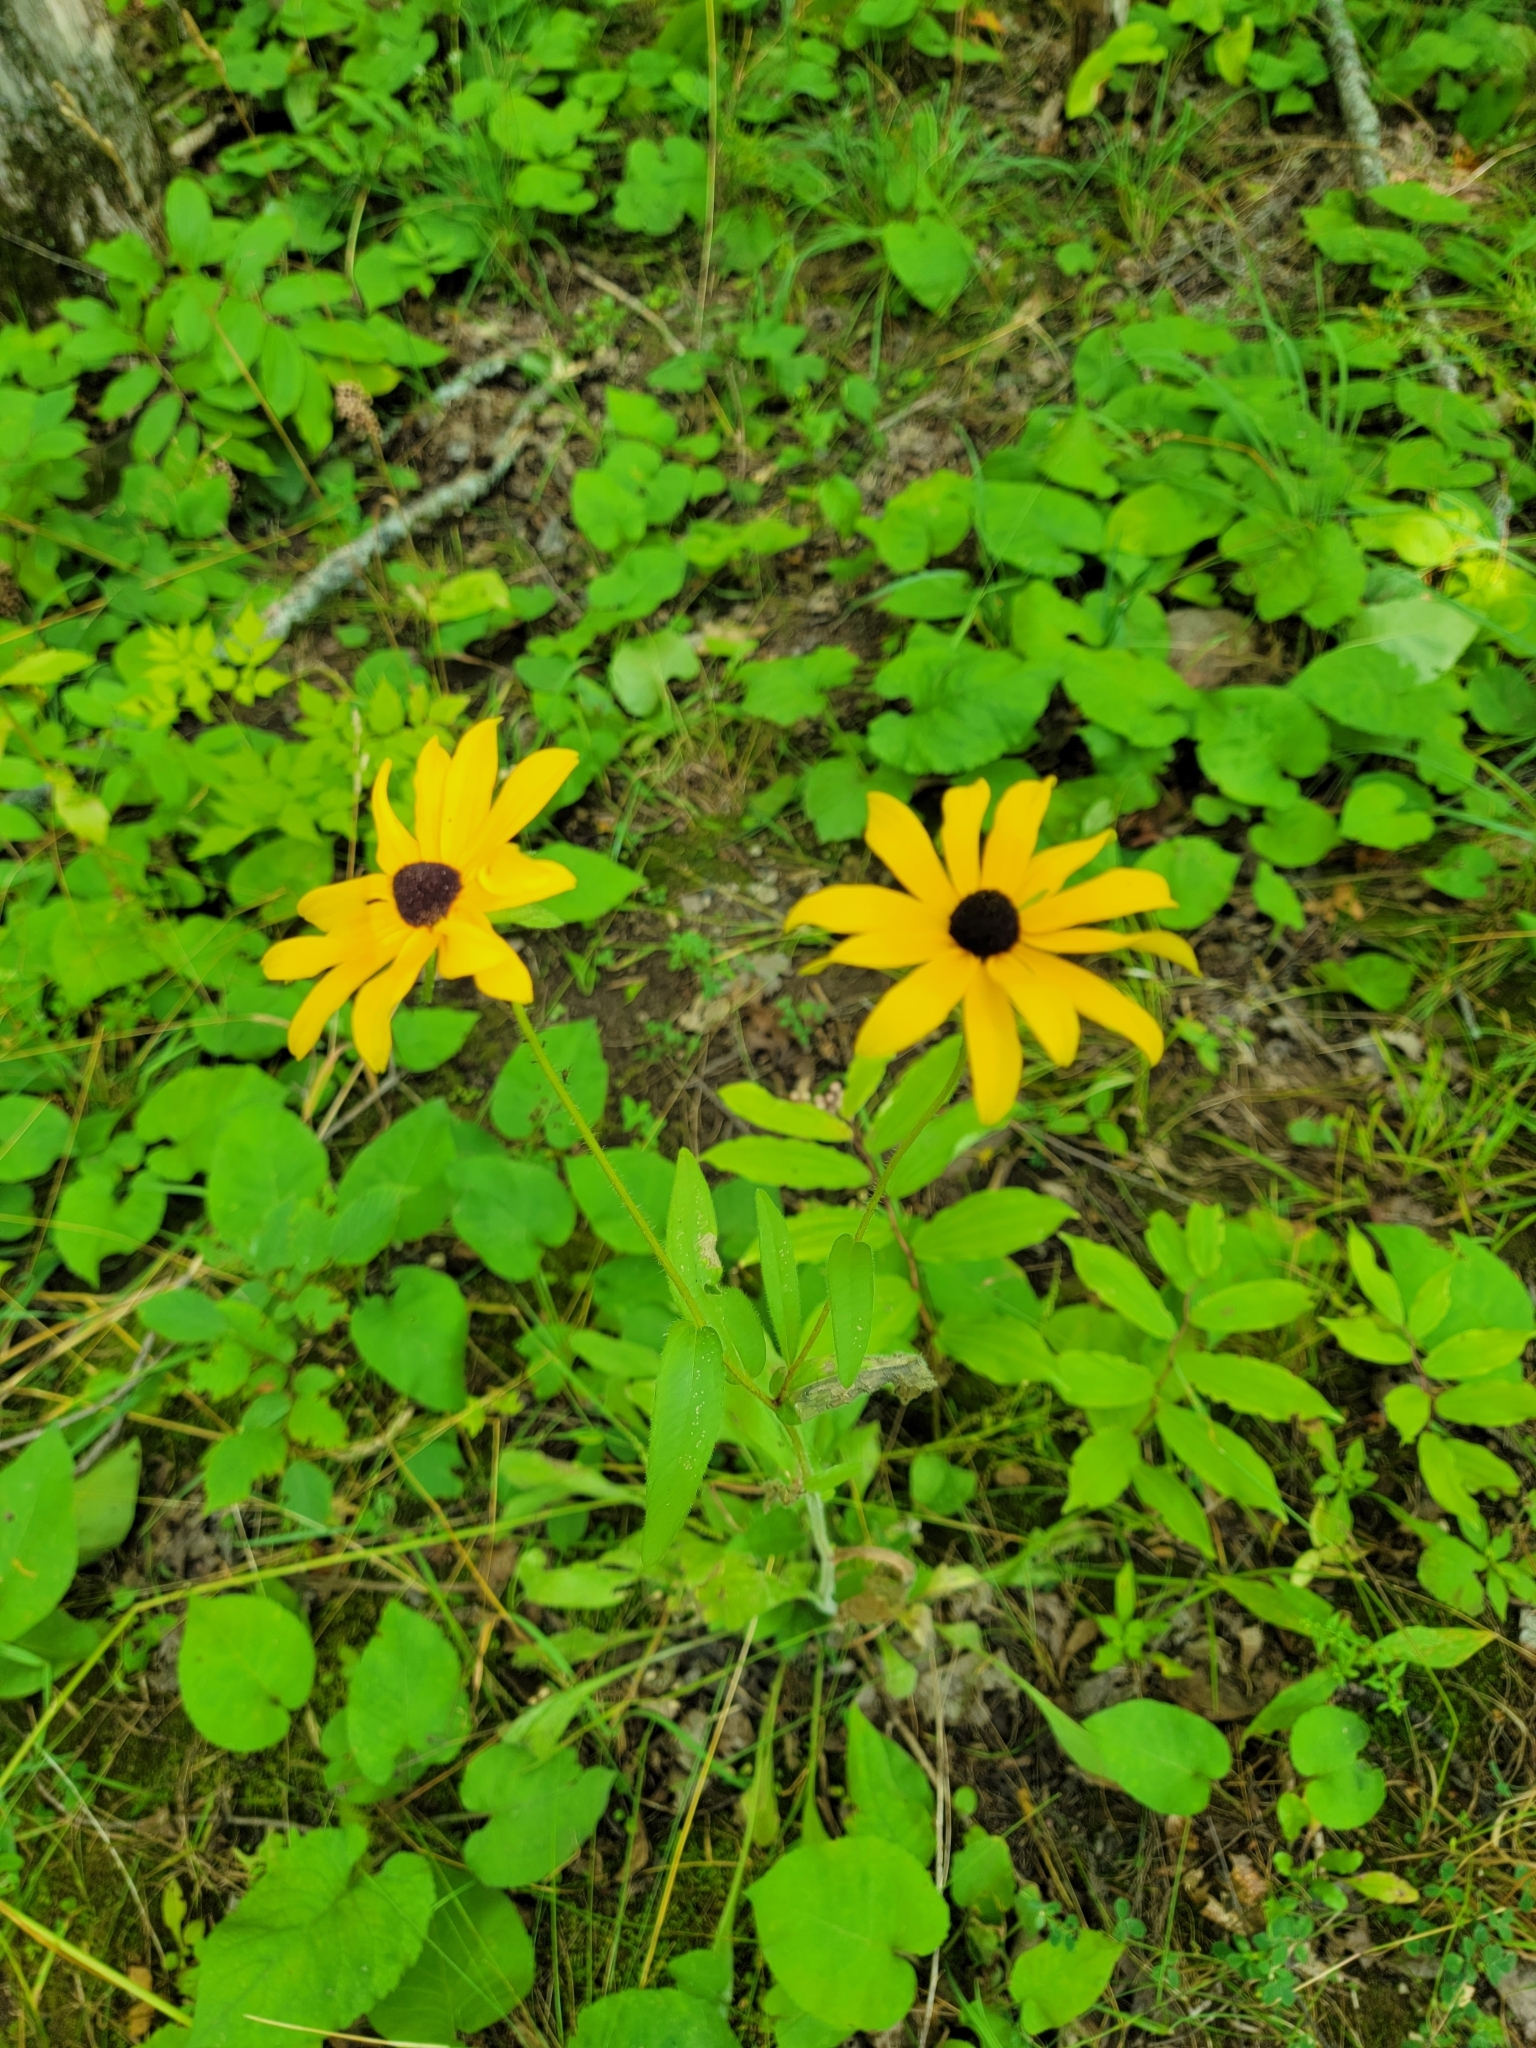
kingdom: Plantae
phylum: Tracheophyta
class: Magnoliopsida
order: Asterales
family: Asteraceae
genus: Rudbeckia
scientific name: Rudbeckia hirta
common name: Black-eyed-susan
